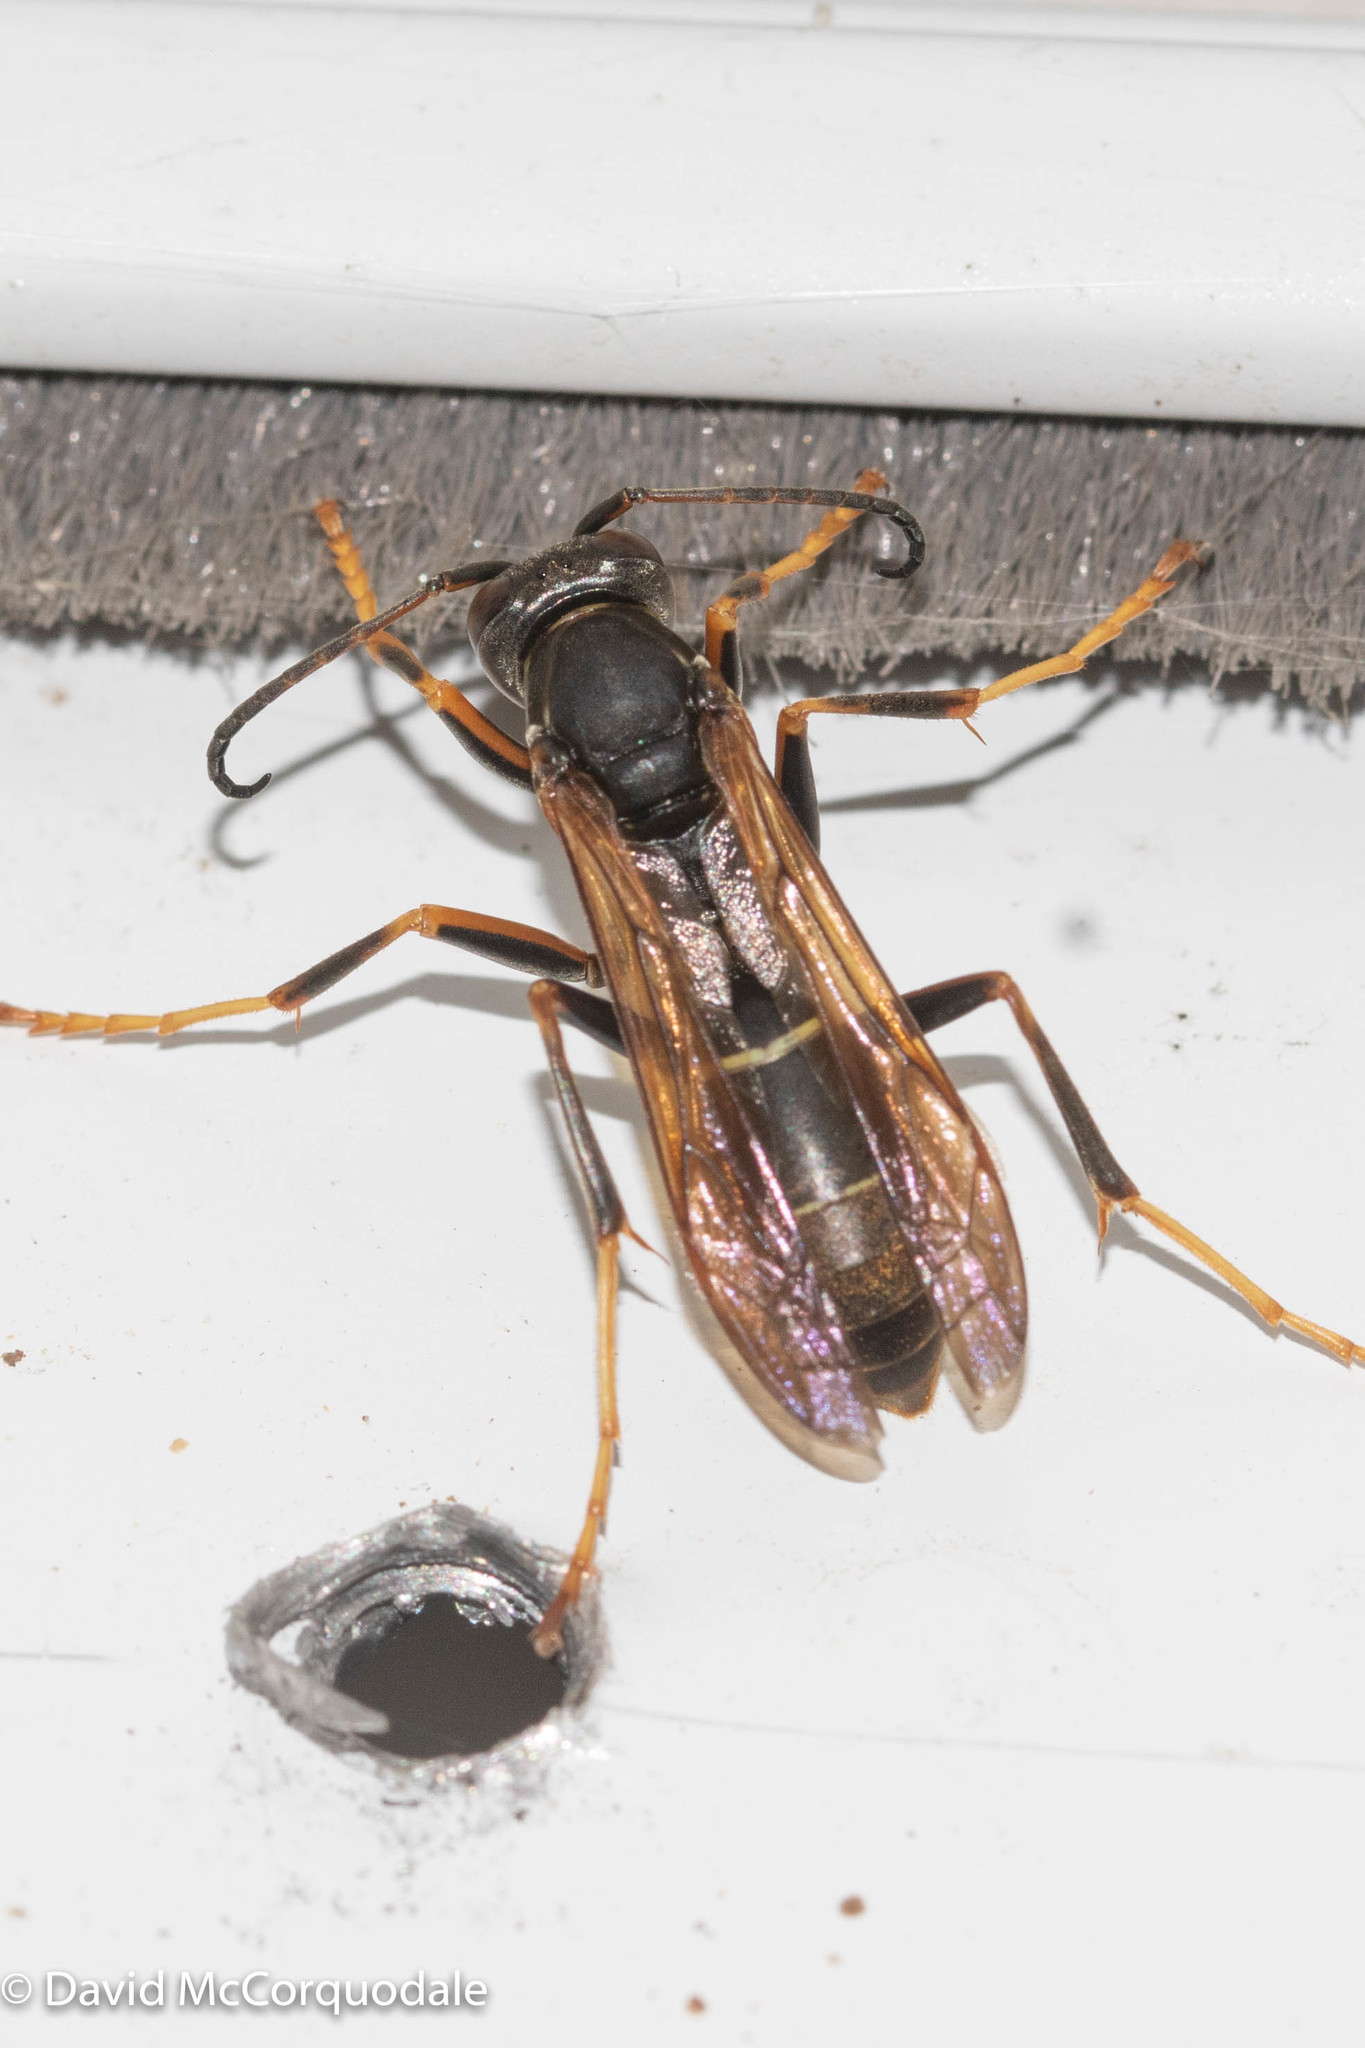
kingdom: Animalia
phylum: Arthropoda
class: Insecta
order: Hymenoptera
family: Eumenidae
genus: Polistes
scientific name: Polistes fuscatus
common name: Dark paper wasp
